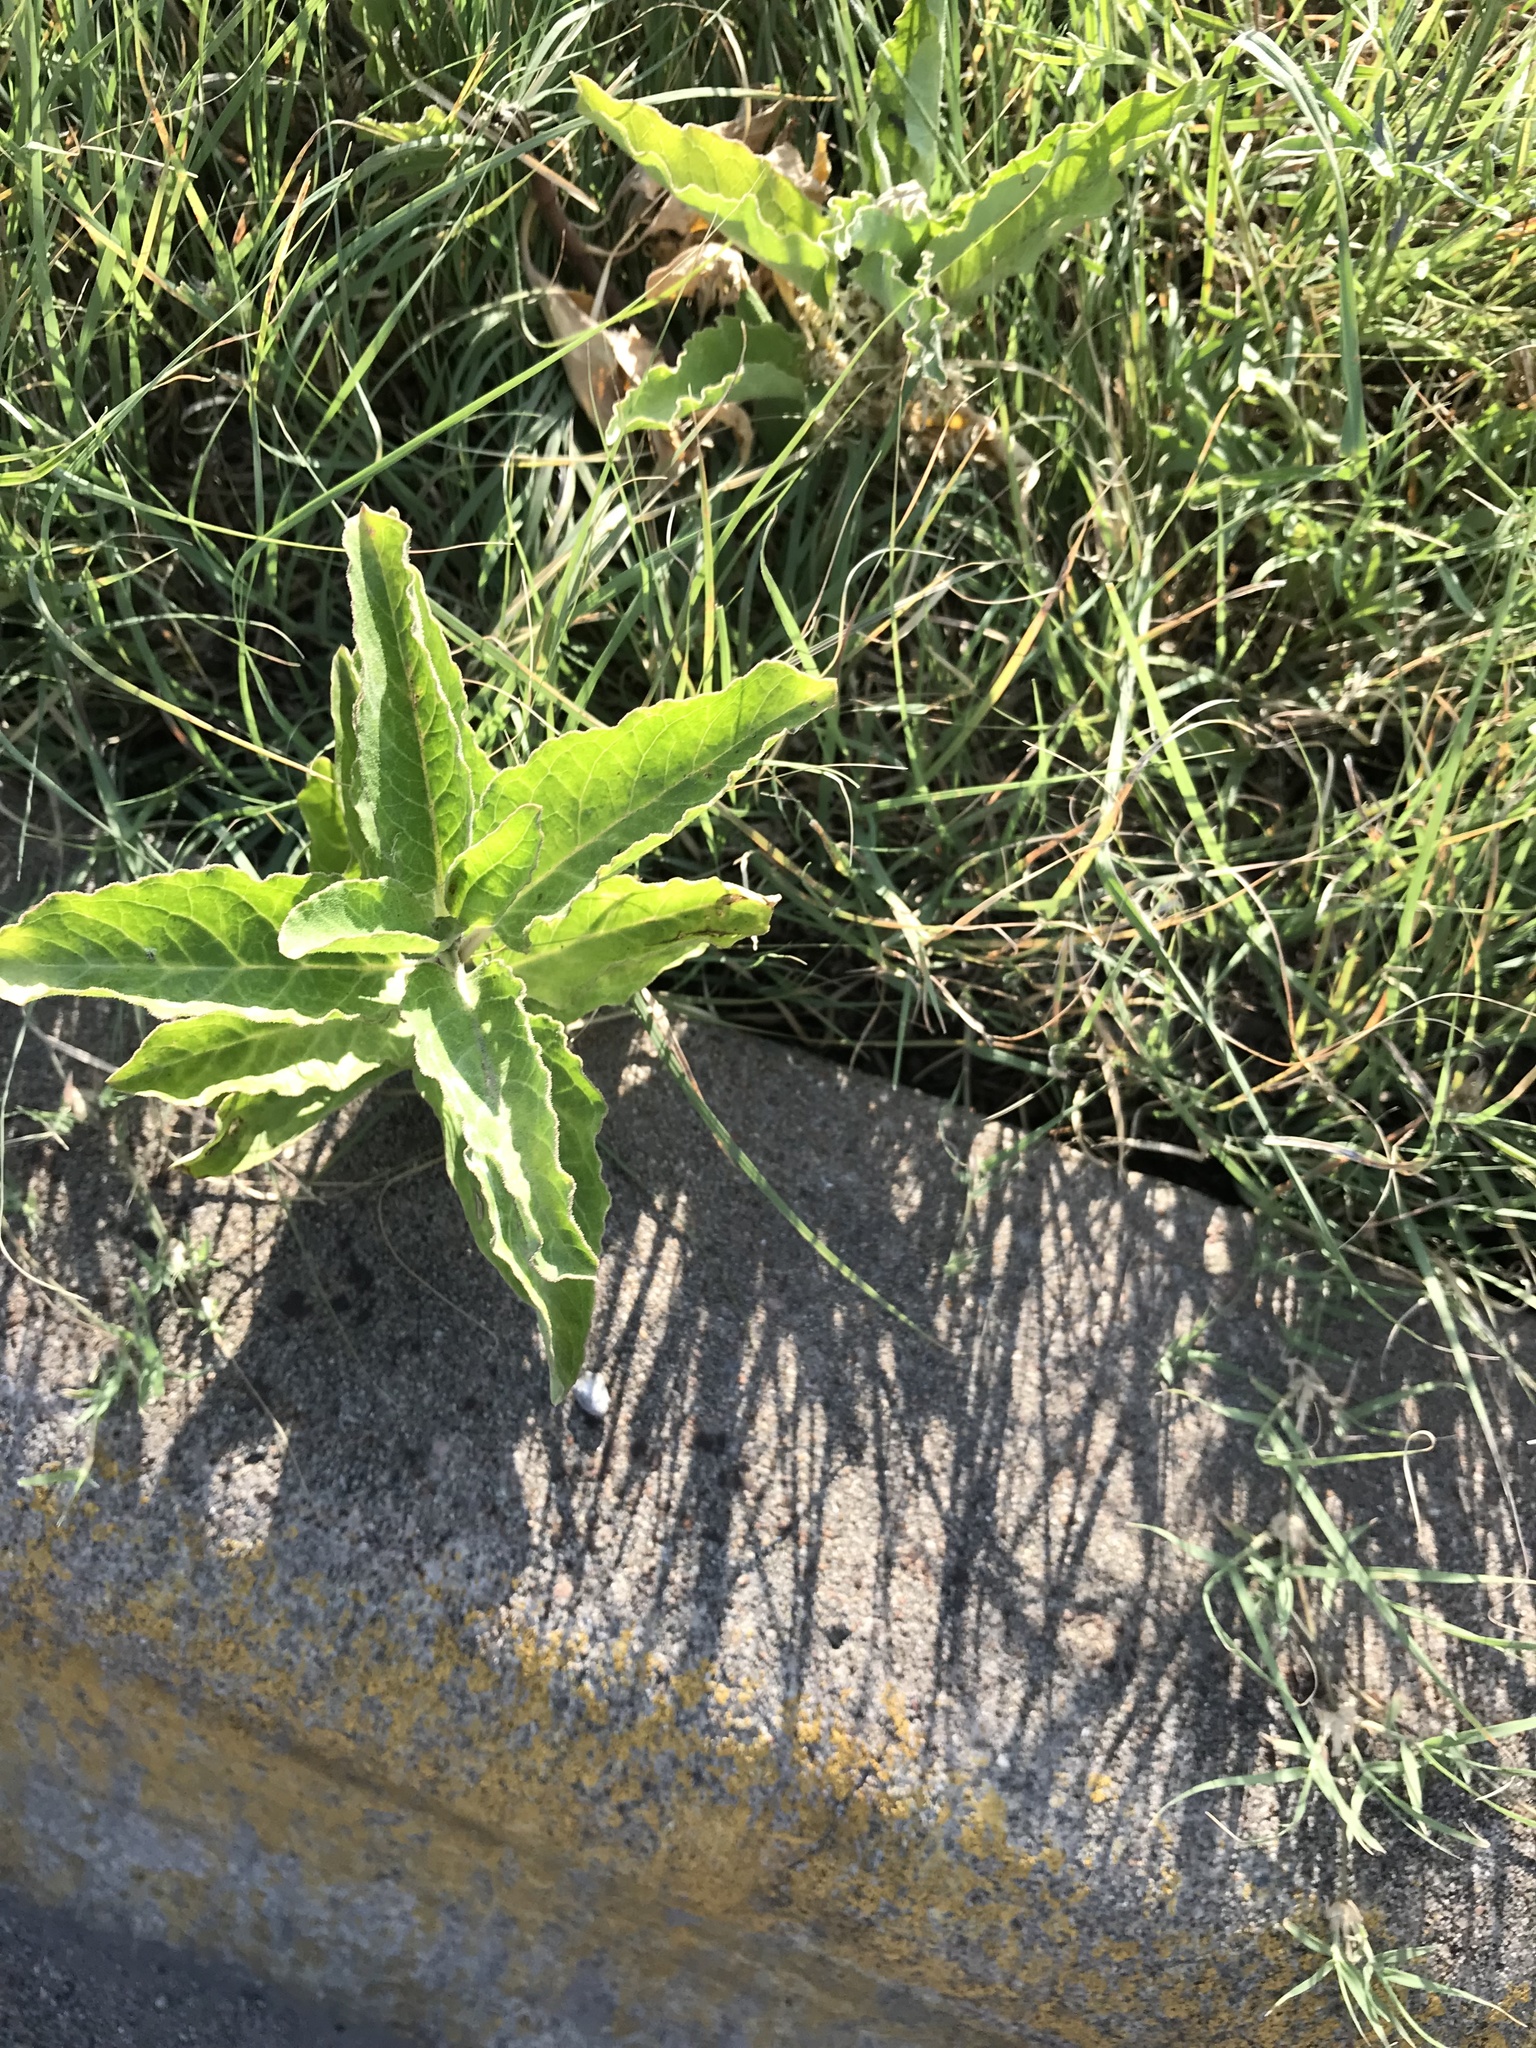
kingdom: Plantae
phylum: Tracheophyta
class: Magnoliopsida
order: Gentianales
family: Apocynaceae
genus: Asclepias
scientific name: Asclepias oenotheroides
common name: Zizotes milkweed
